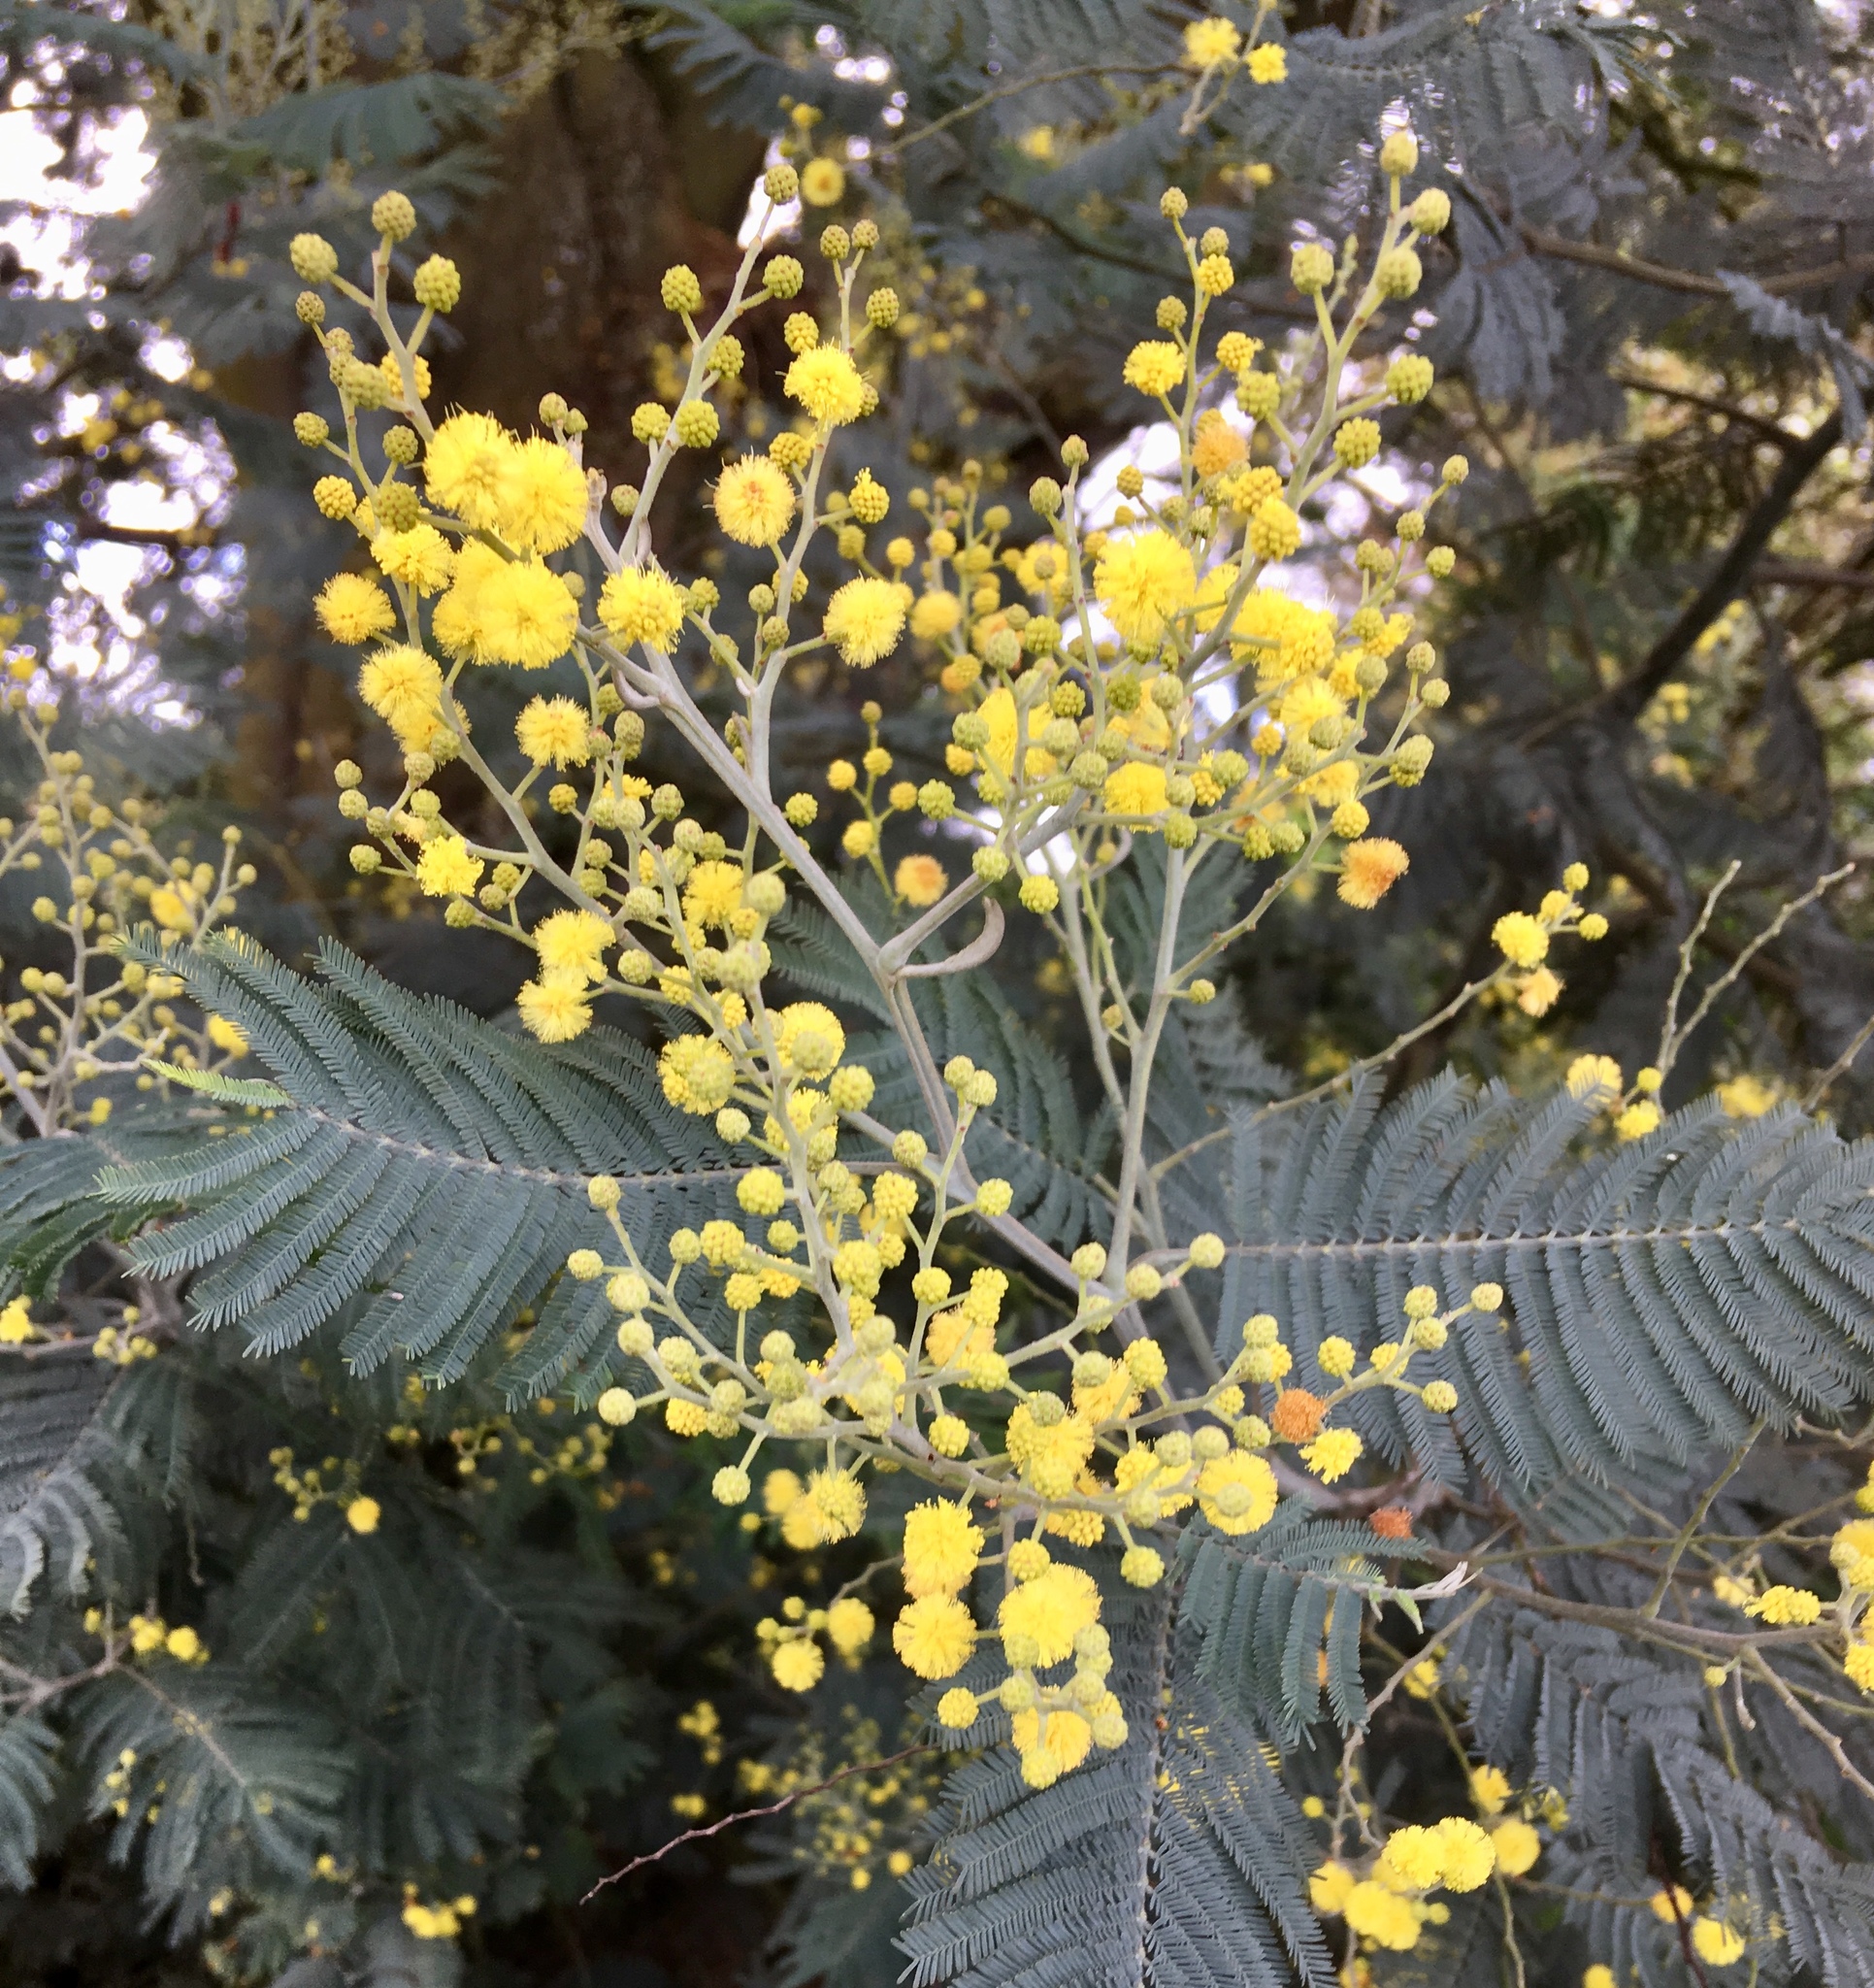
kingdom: Plantae
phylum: Tracheophyta
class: Magnoliopsida
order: Fabales
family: Fabaceae
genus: Acacia
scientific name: Acacia dealbata
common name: Silver wattle
